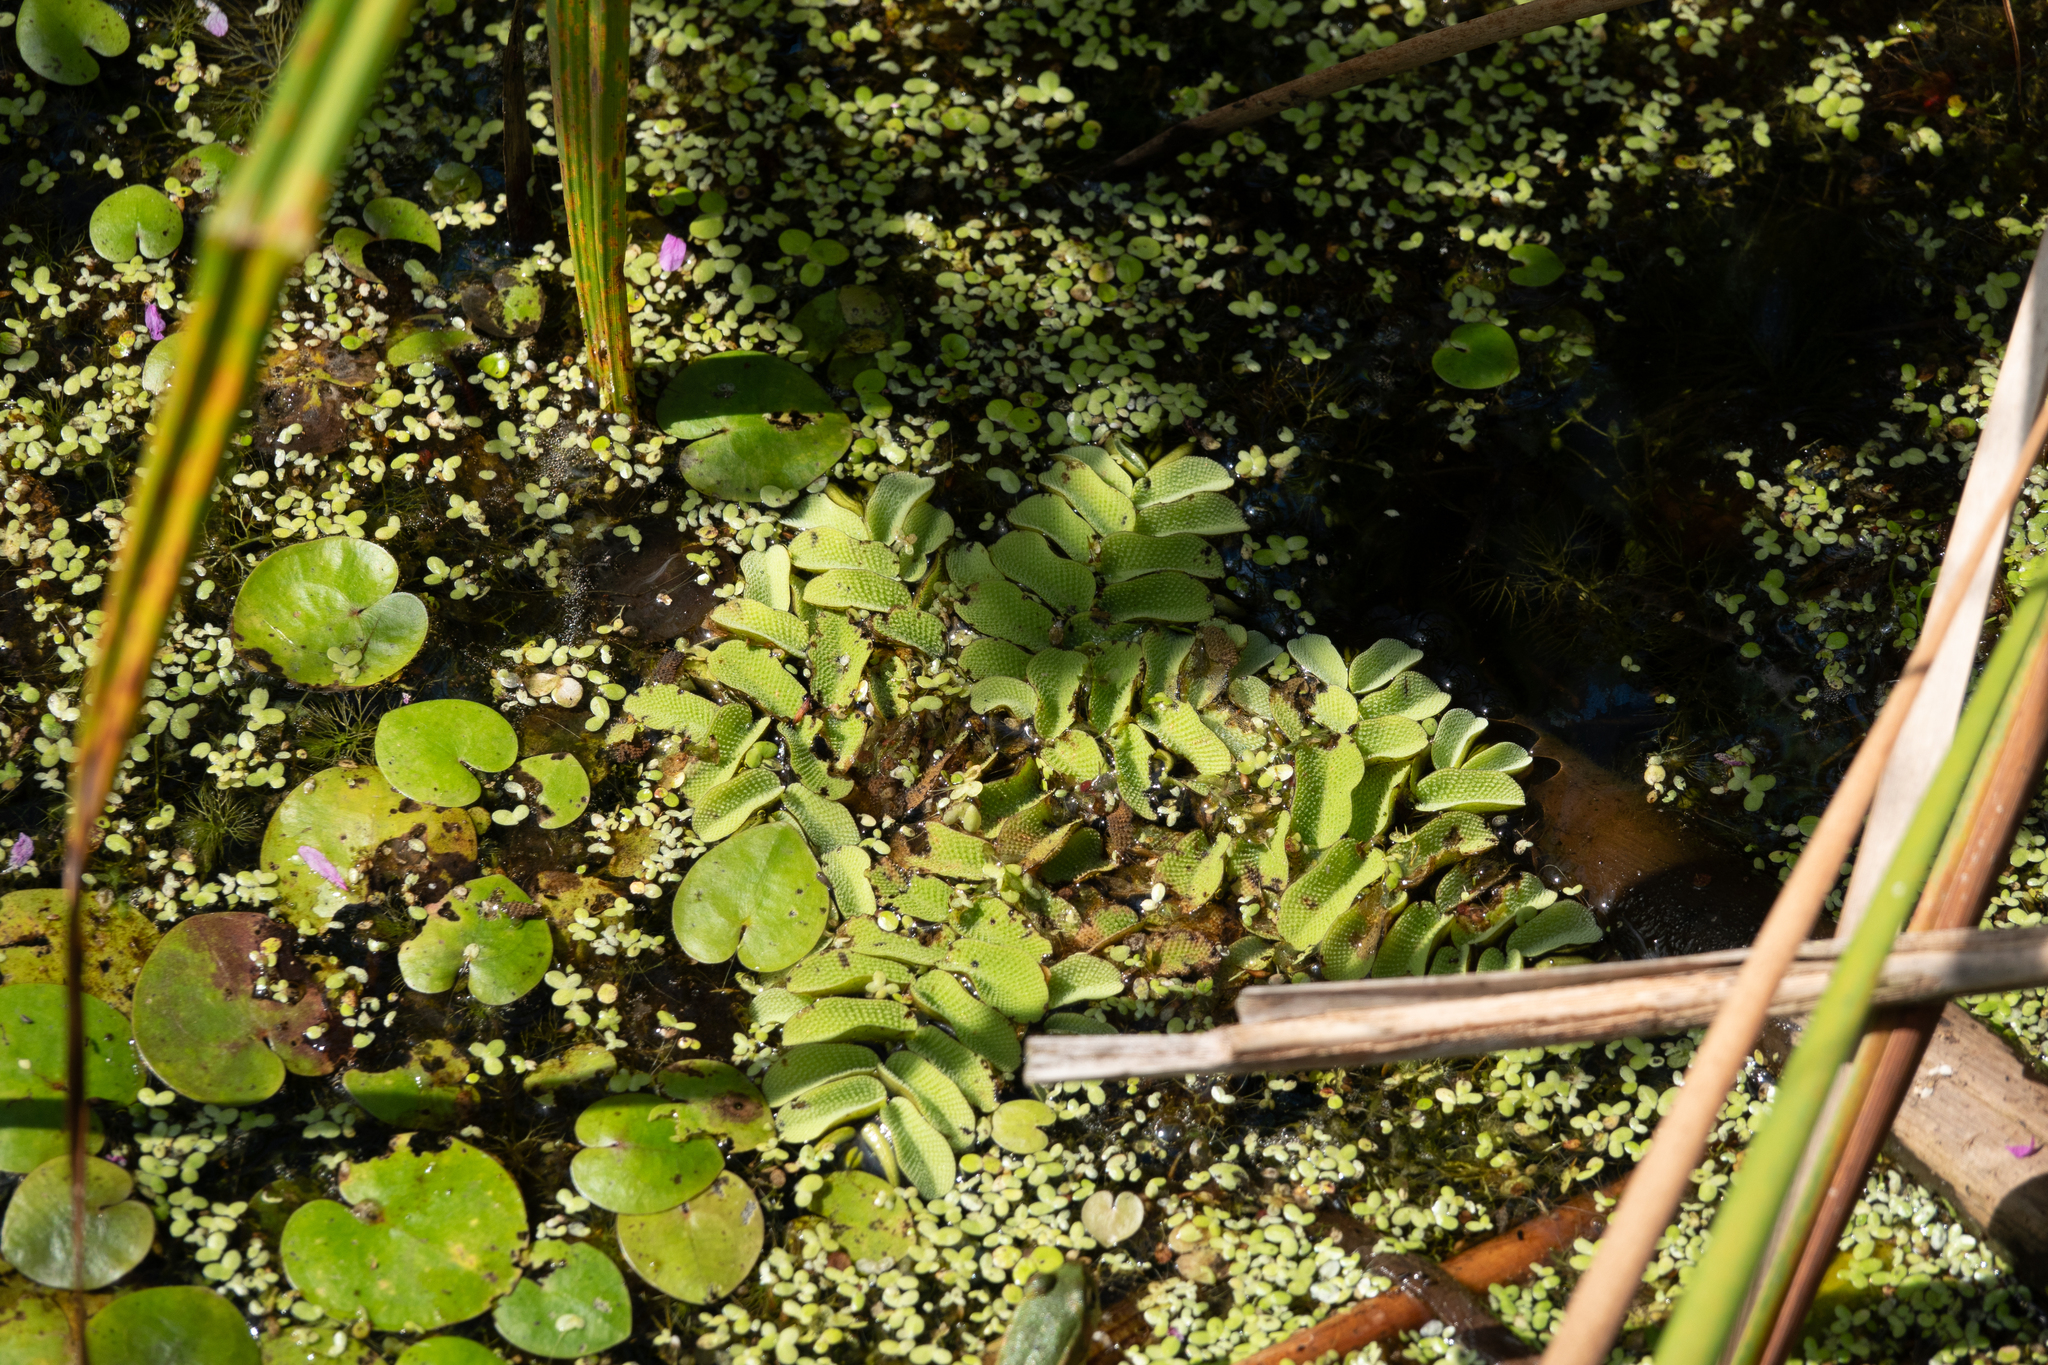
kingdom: Plantae
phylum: Tracheophyta
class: Polypodiopsida
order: Salviniales
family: Salviniaceae
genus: Salvinia
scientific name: Salvinia natans
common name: Floating fern
